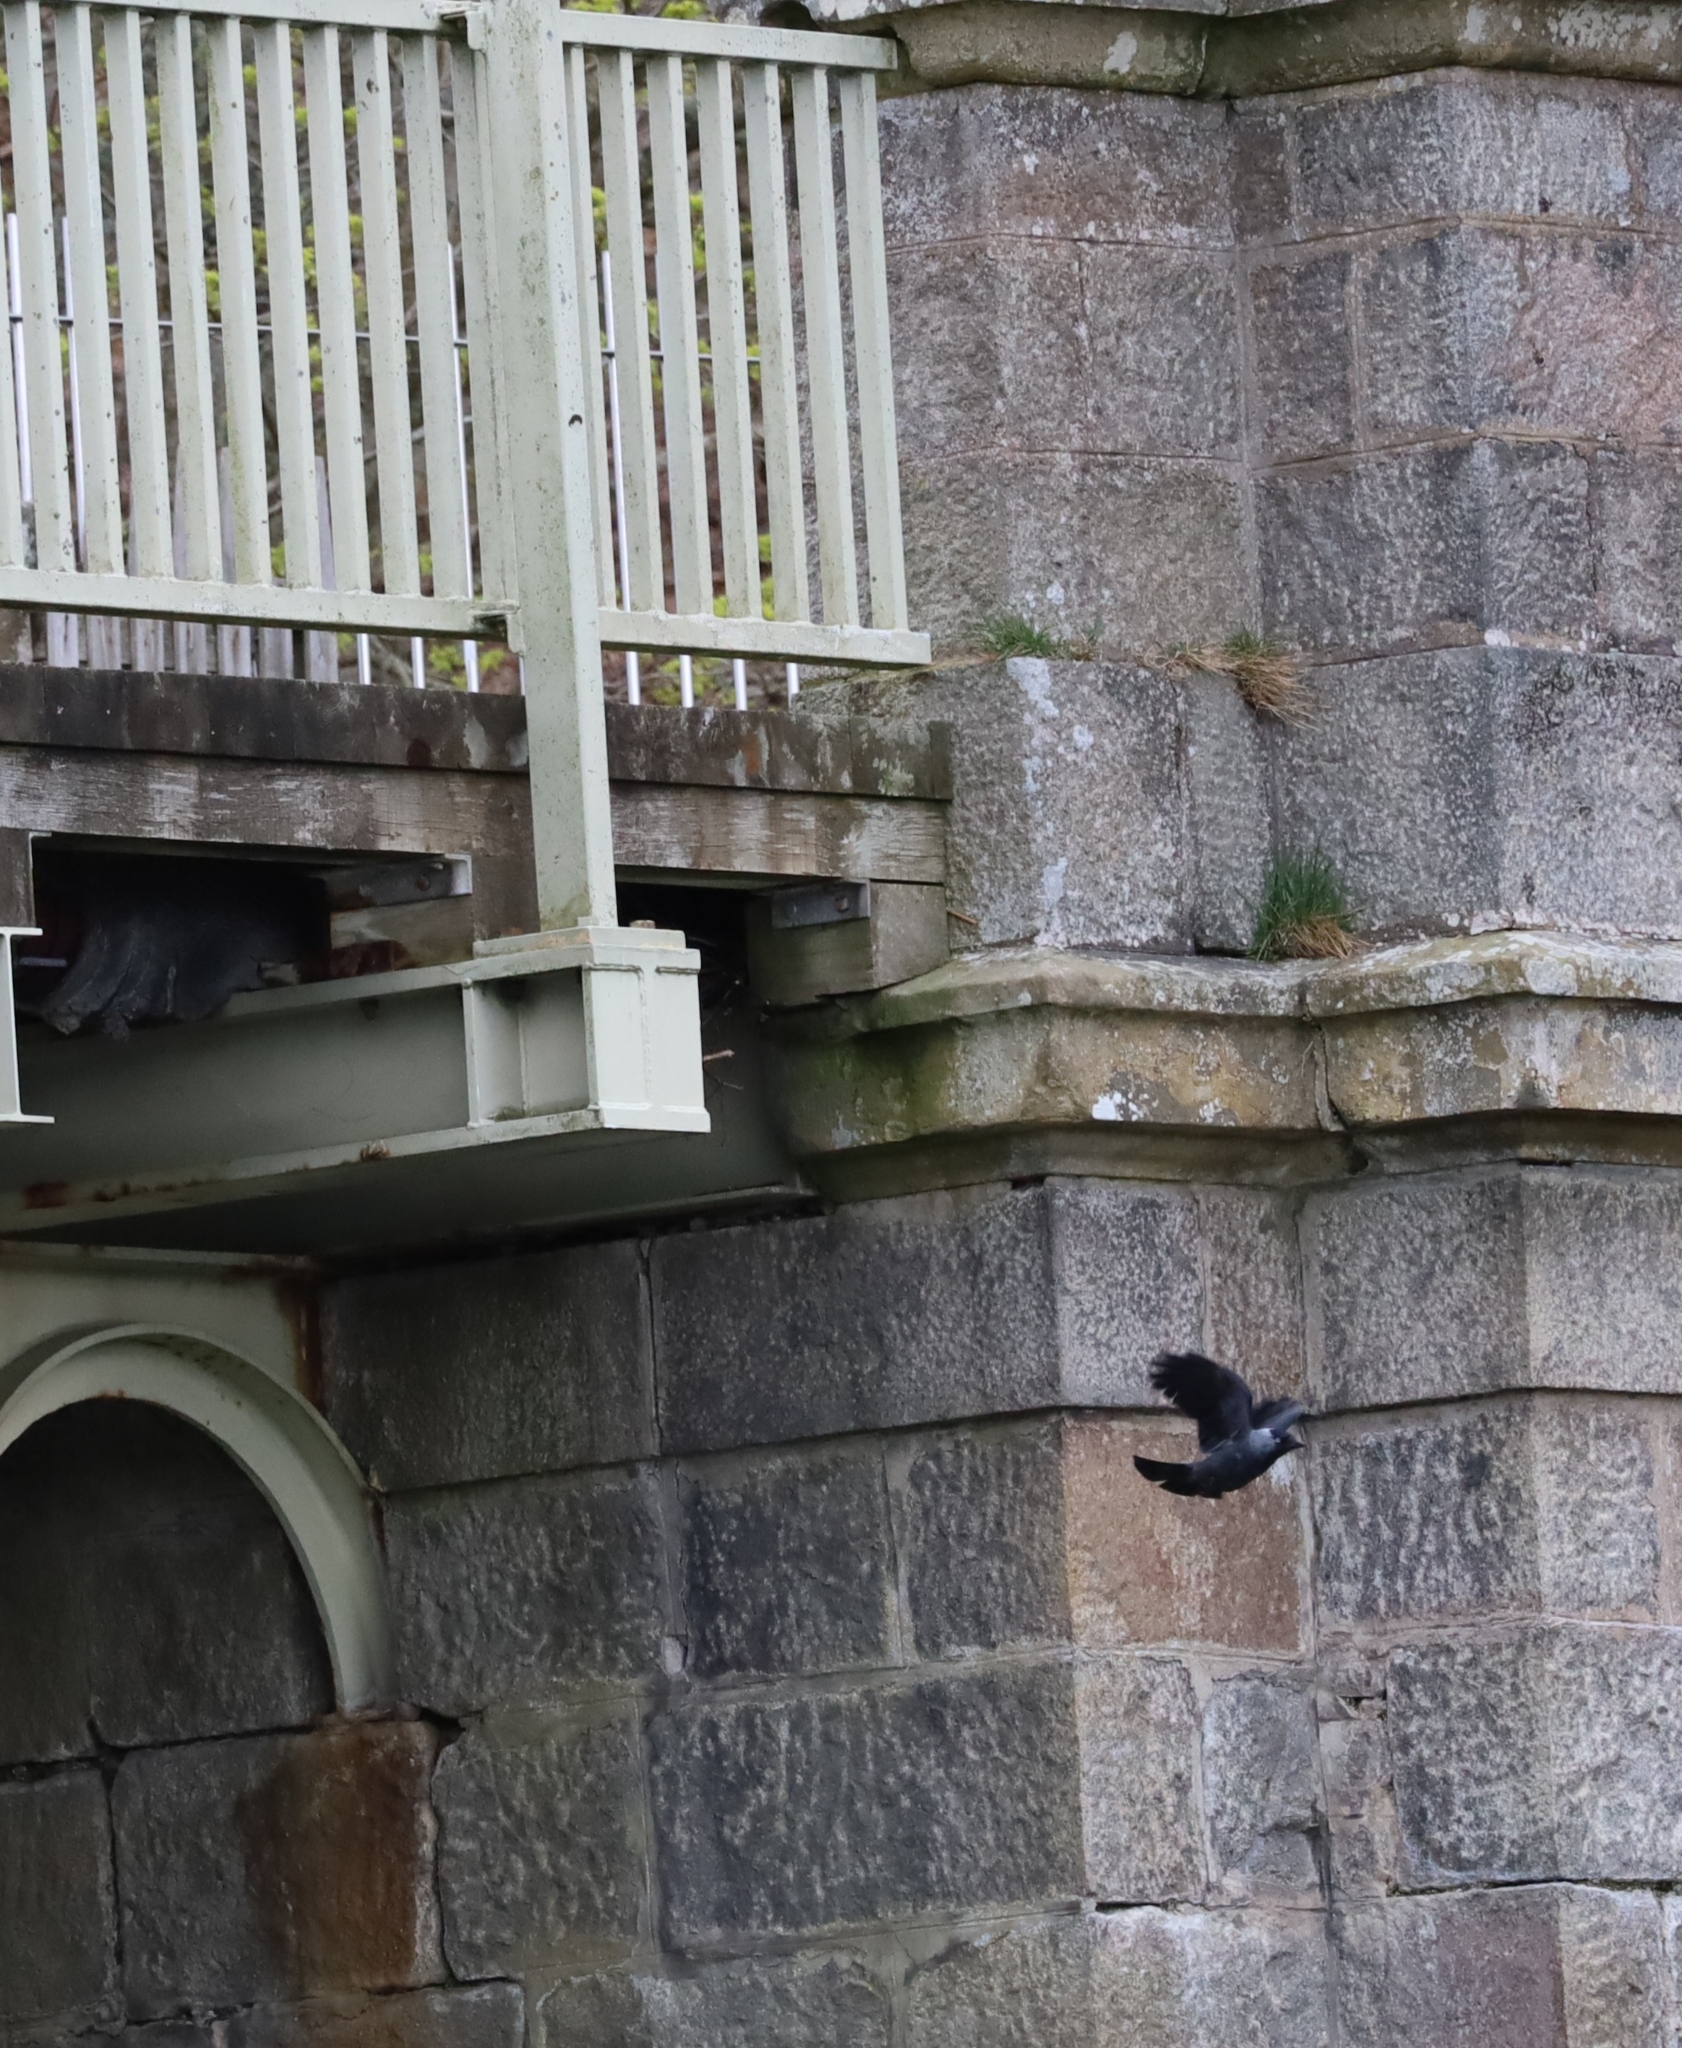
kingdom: Animalia
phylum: Chordata
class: Aves
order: Passeriformes
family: Corvidae
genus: Coloeus
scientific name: Coloeus monedula
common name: Western jackdaw
